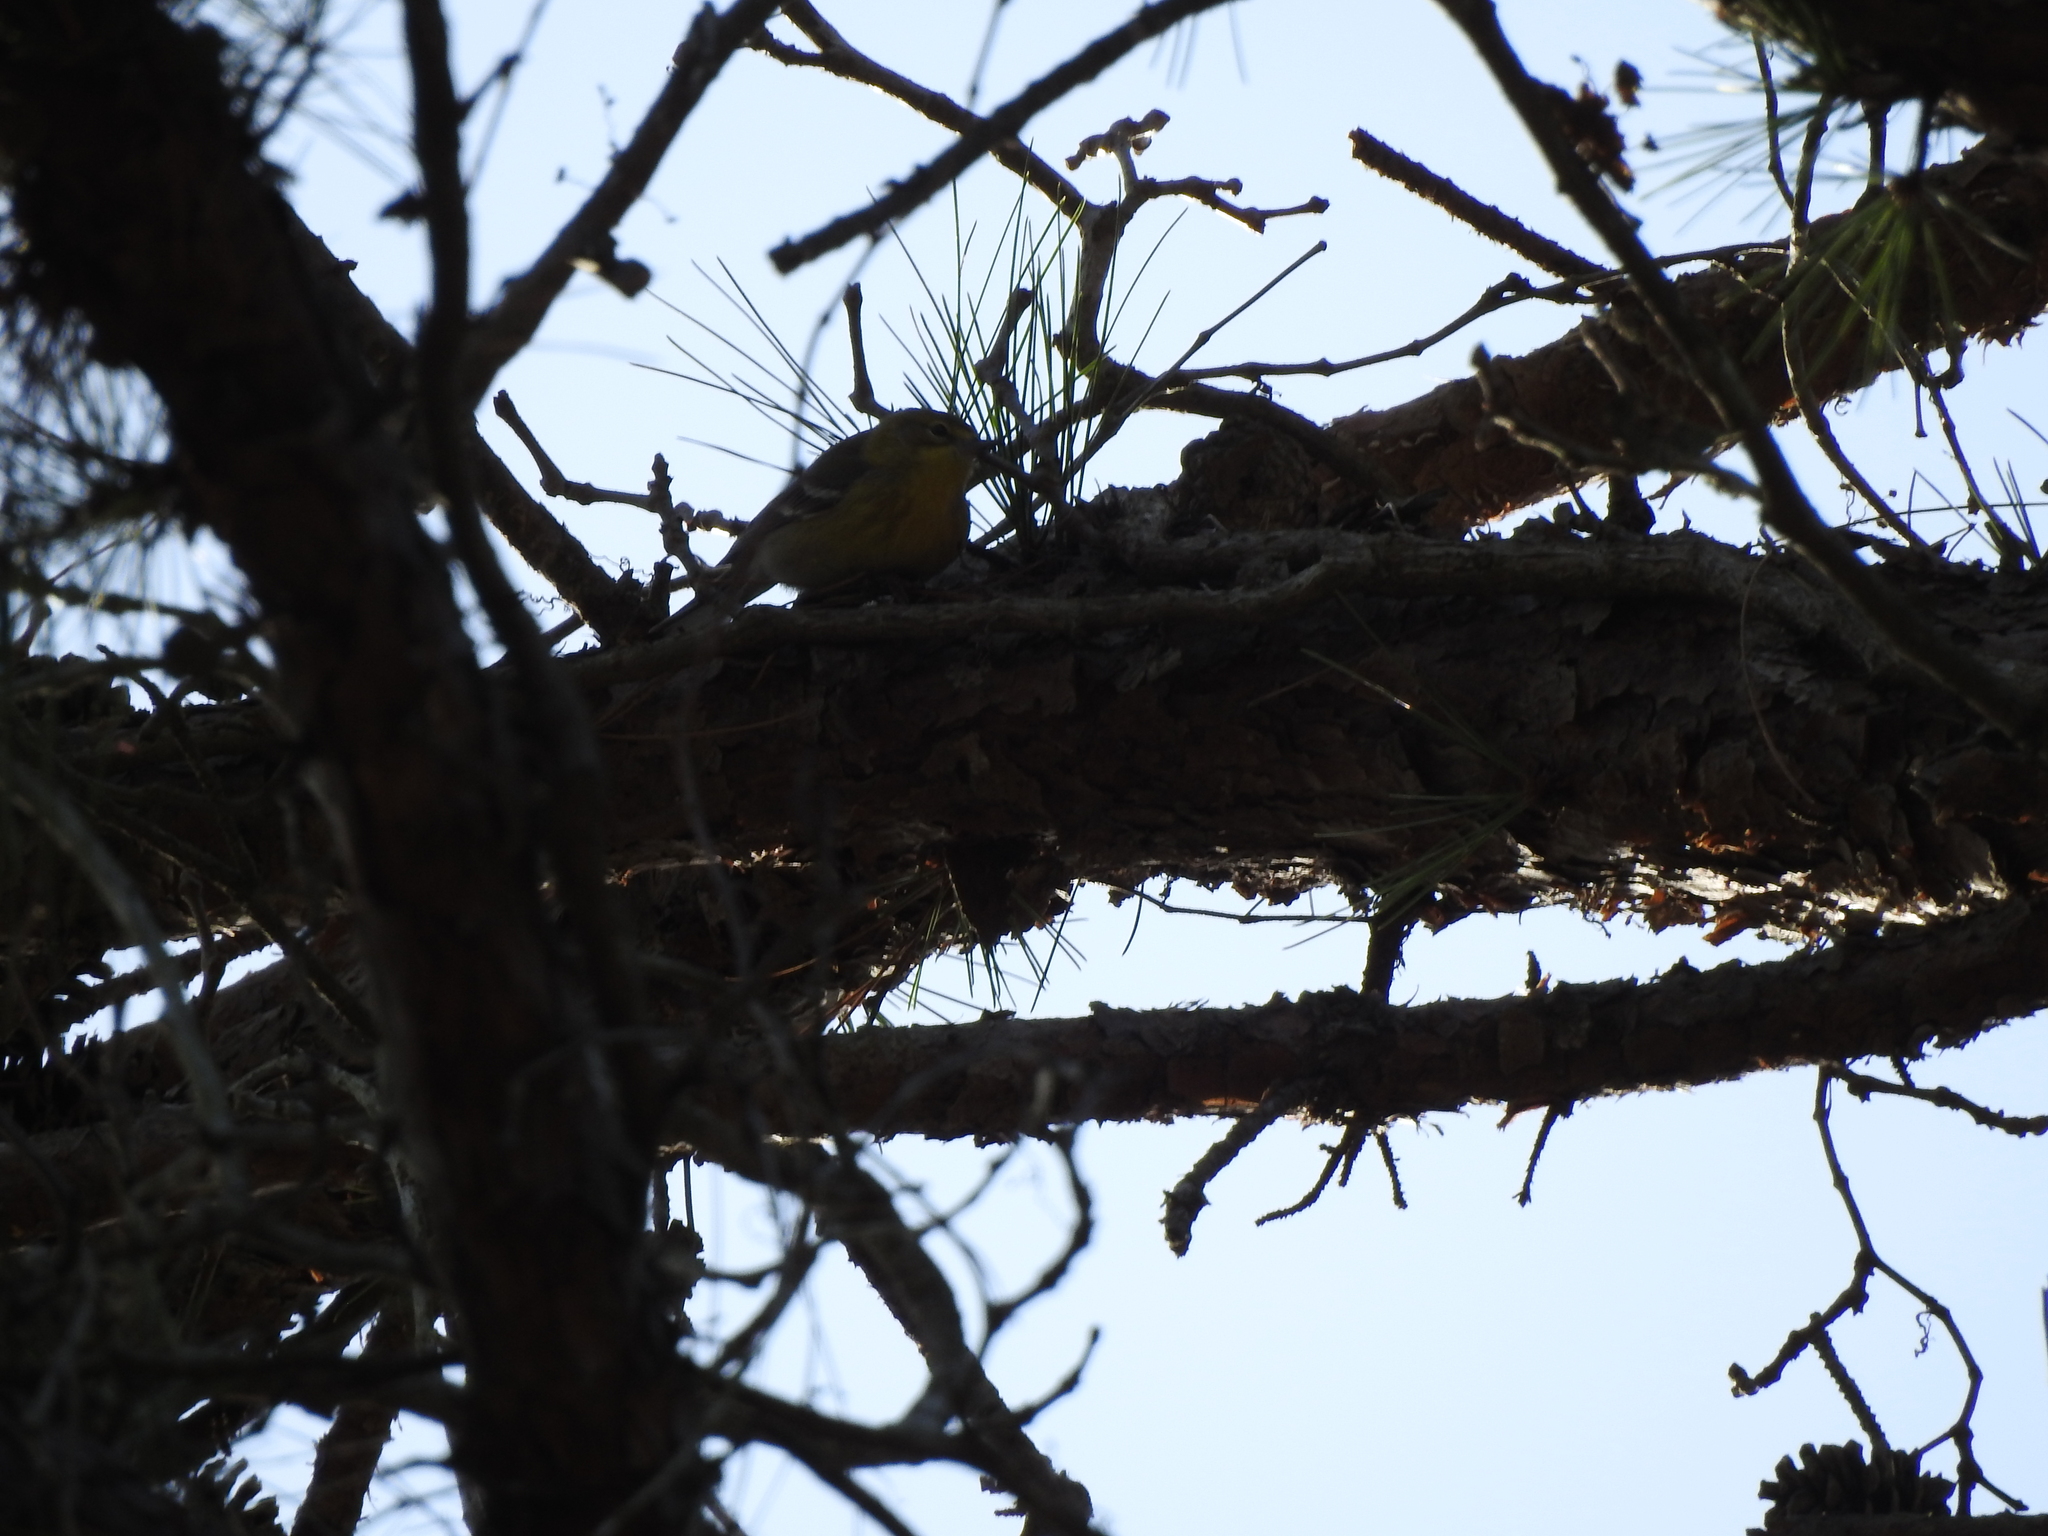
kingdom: Animalia
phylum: Chordata
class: Aves
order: Passeriformes
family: Parulidae
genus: Setophaga
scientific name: Setophaga pinus
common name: Pine warbler
